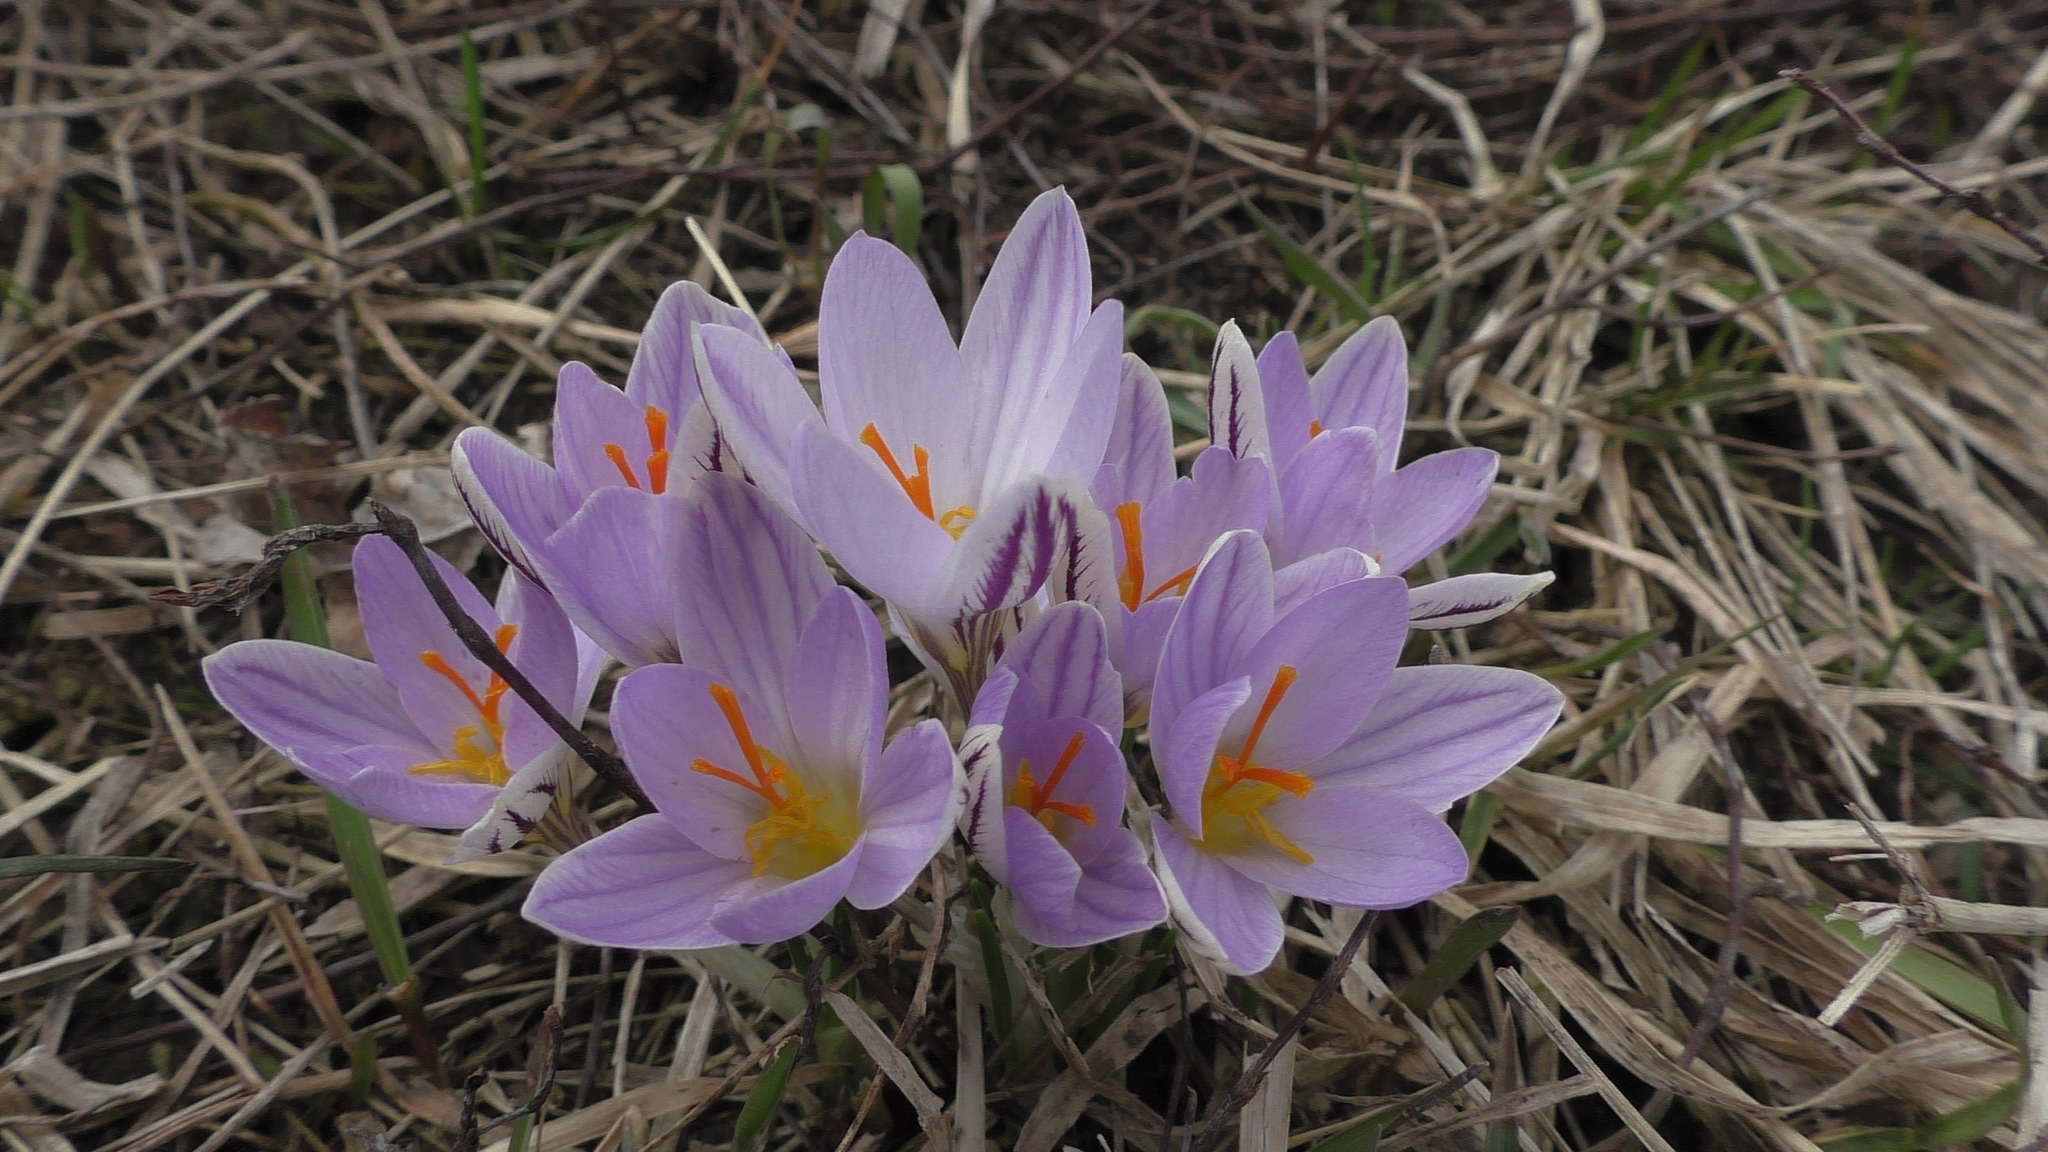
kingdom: Plantae
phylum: Tracheophyta
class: Liliopsida
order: Asparagales
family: Iridaceae
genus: Crocus
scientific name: Crocus reticulatus
